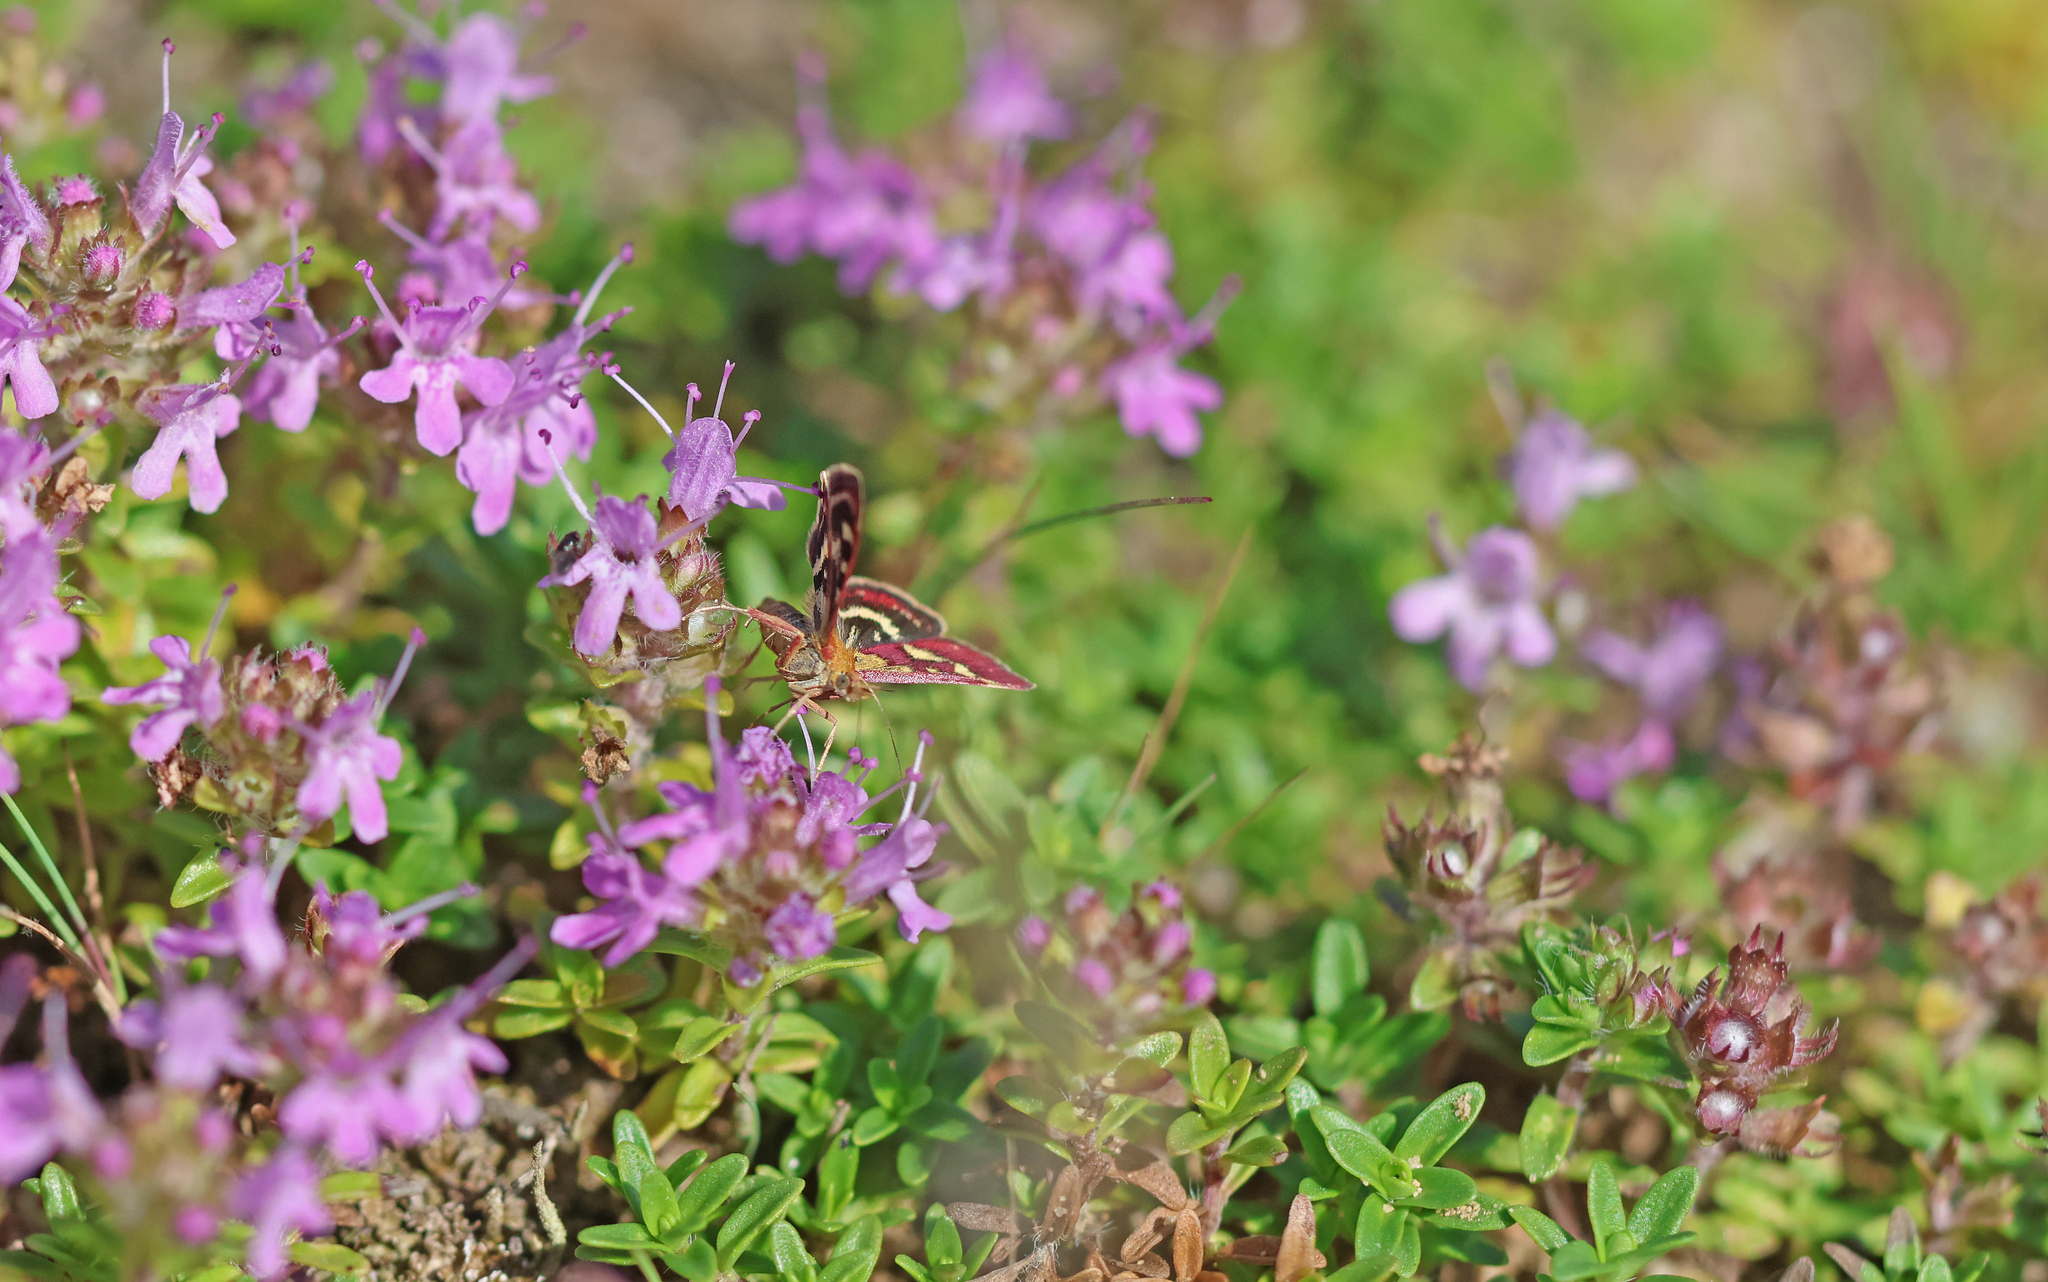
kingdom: Animalia
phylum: Arthropoda
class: Insecta
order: Lepidoptera
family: Crambidae
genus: Pyrausta
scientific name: Pyrausta ostrinalis
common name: Scarce purple & gold
